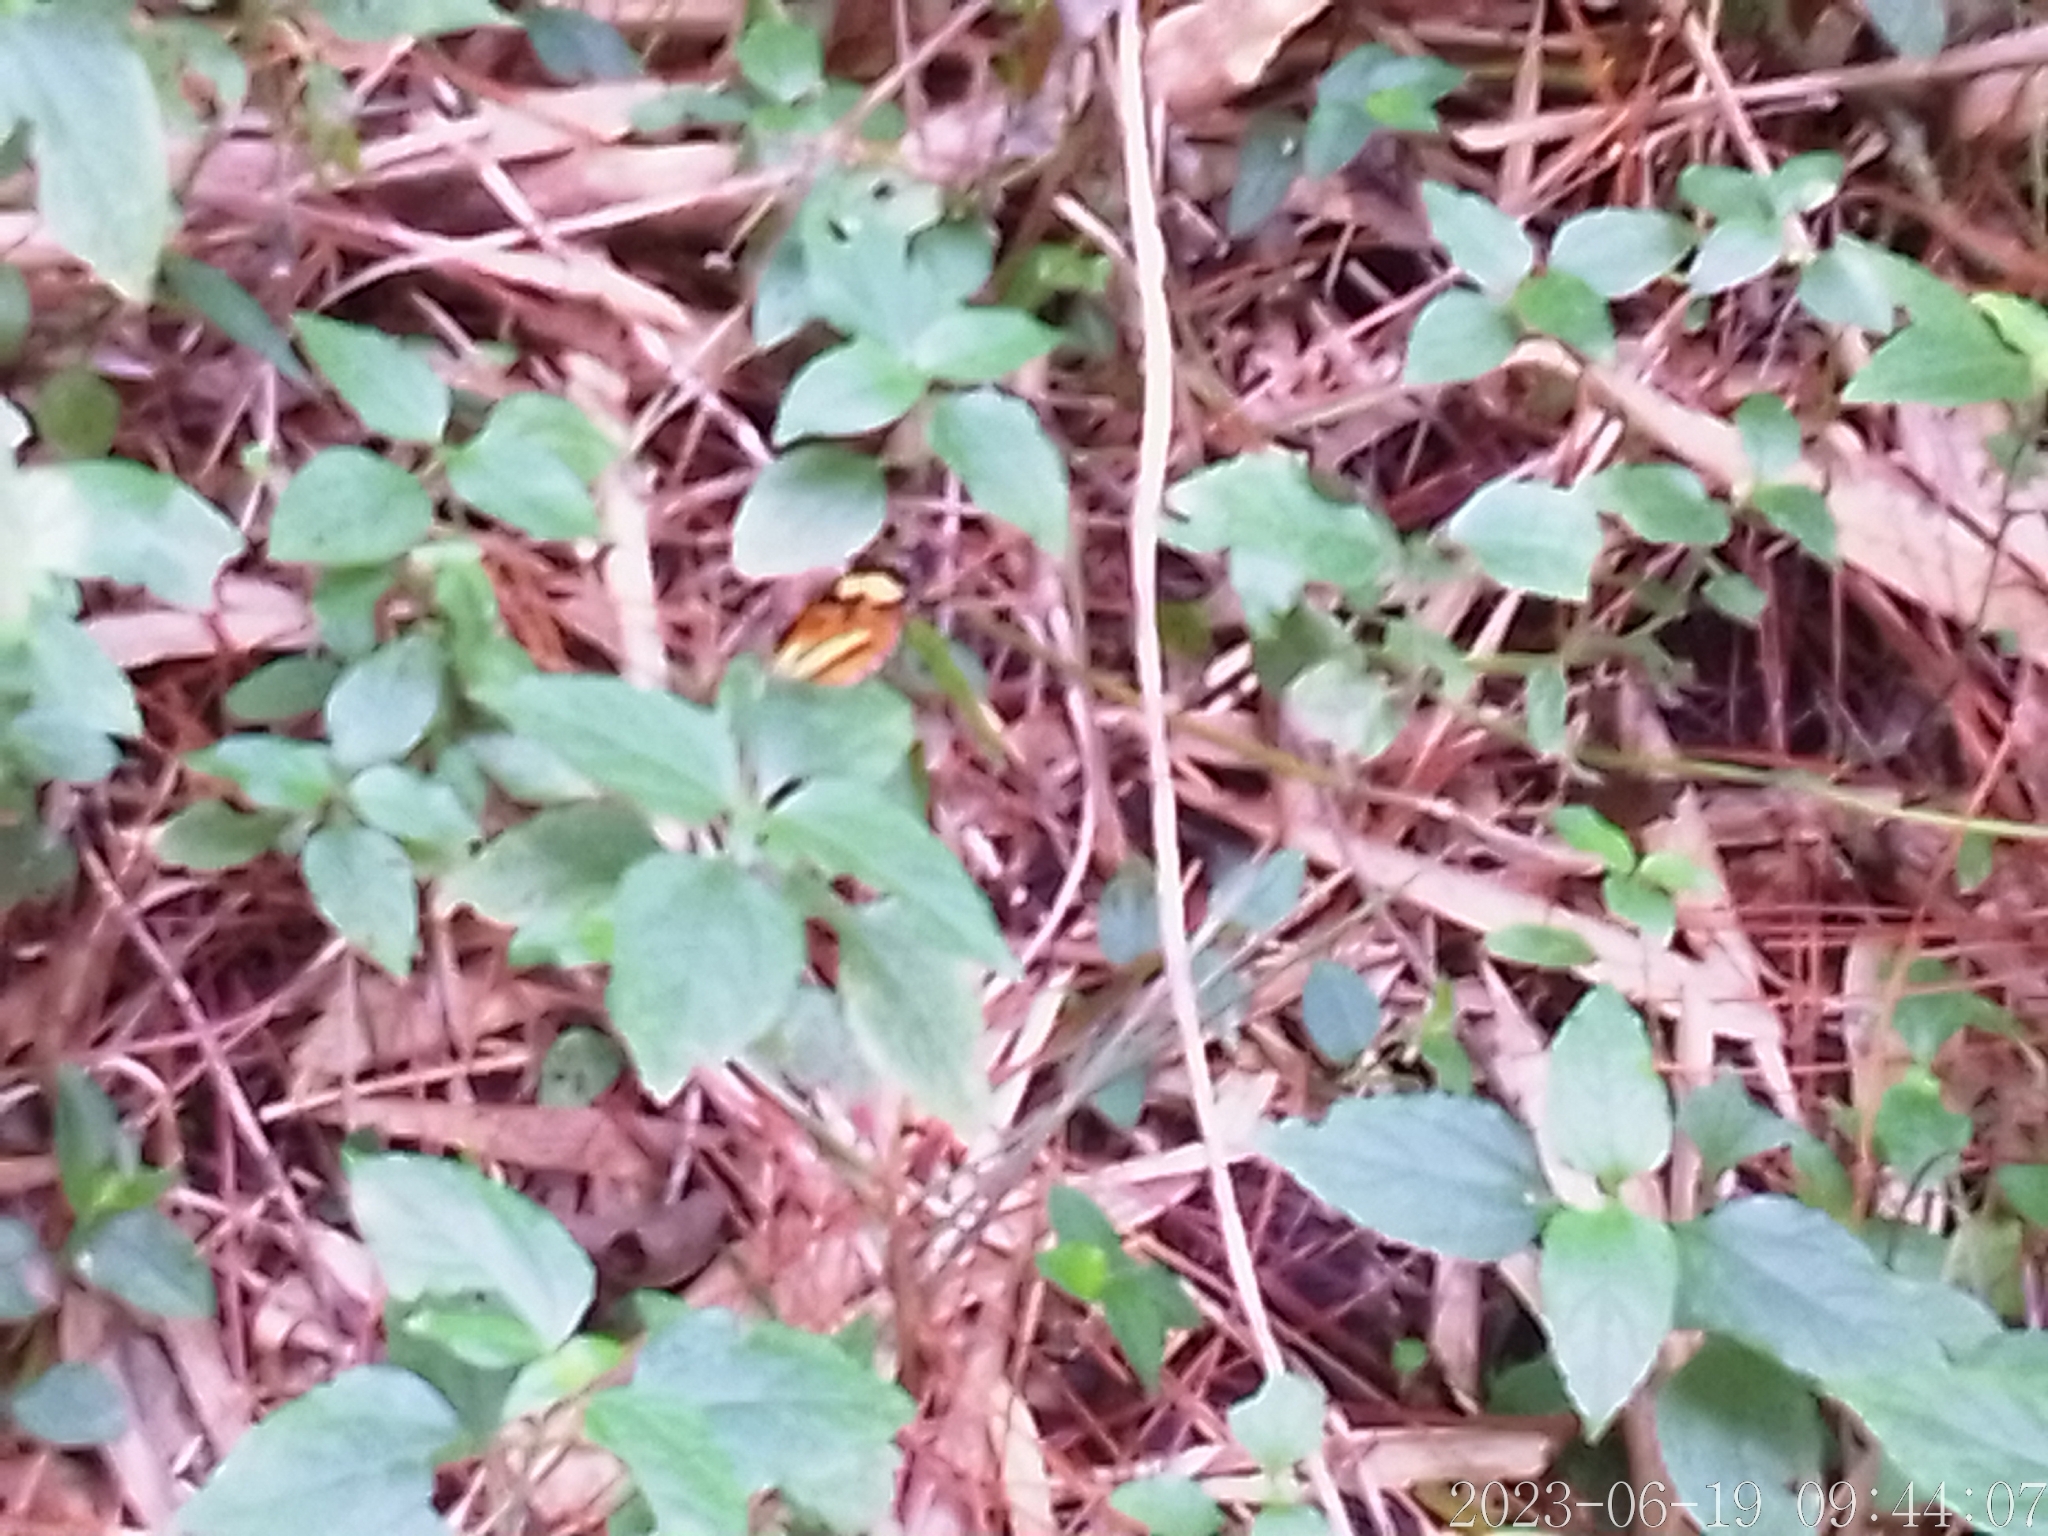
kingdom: Animalia
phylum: Arthropoda
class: Insecta
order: Lepidoptera
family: Nymphalidae
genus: Hypothyris
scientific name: Hypothyris euclea
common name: Euclea tigerwing
